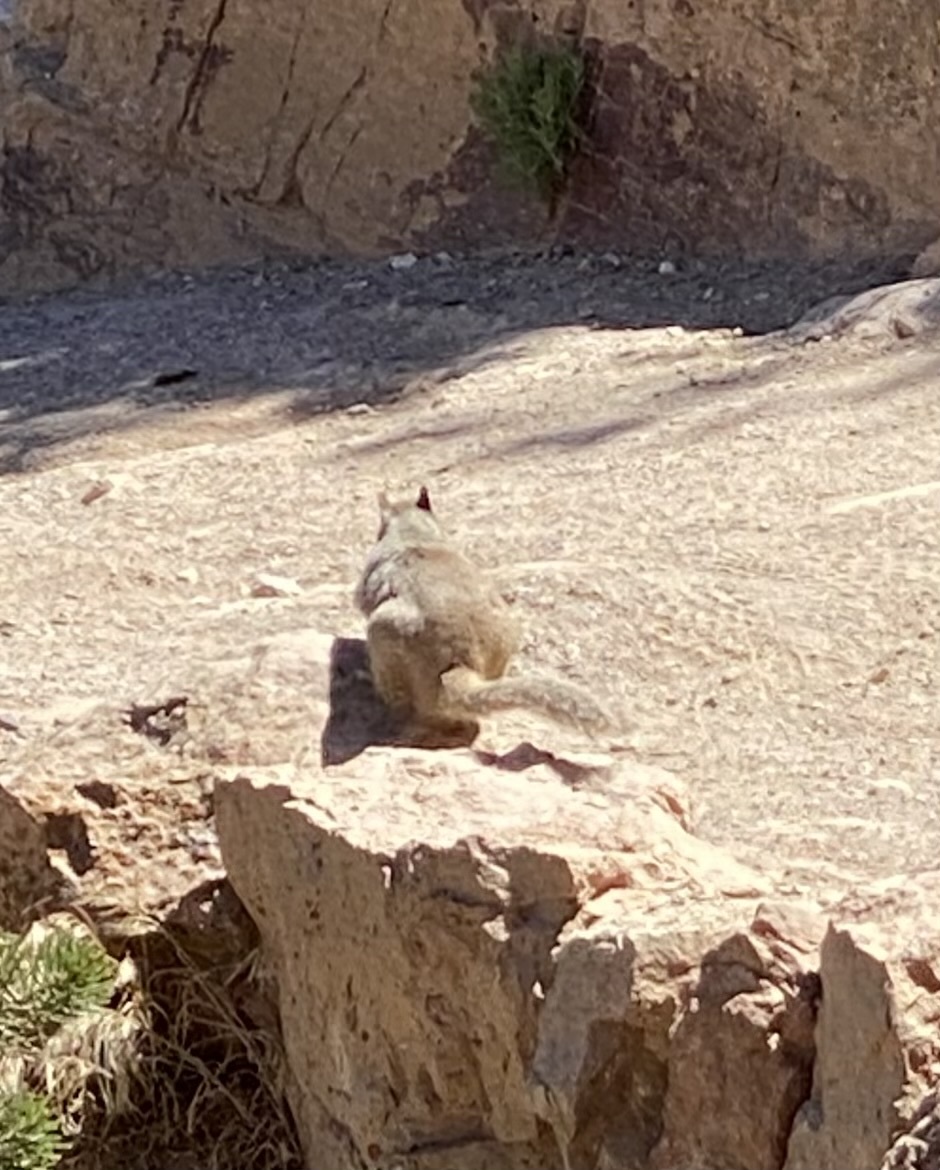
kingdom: Animalia
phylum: Chordata
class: Mammalia
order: Rodentia
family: Sciuridae
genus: Otospermophilus
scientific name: Otospermophilus variegatus
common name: Rock squirrel
